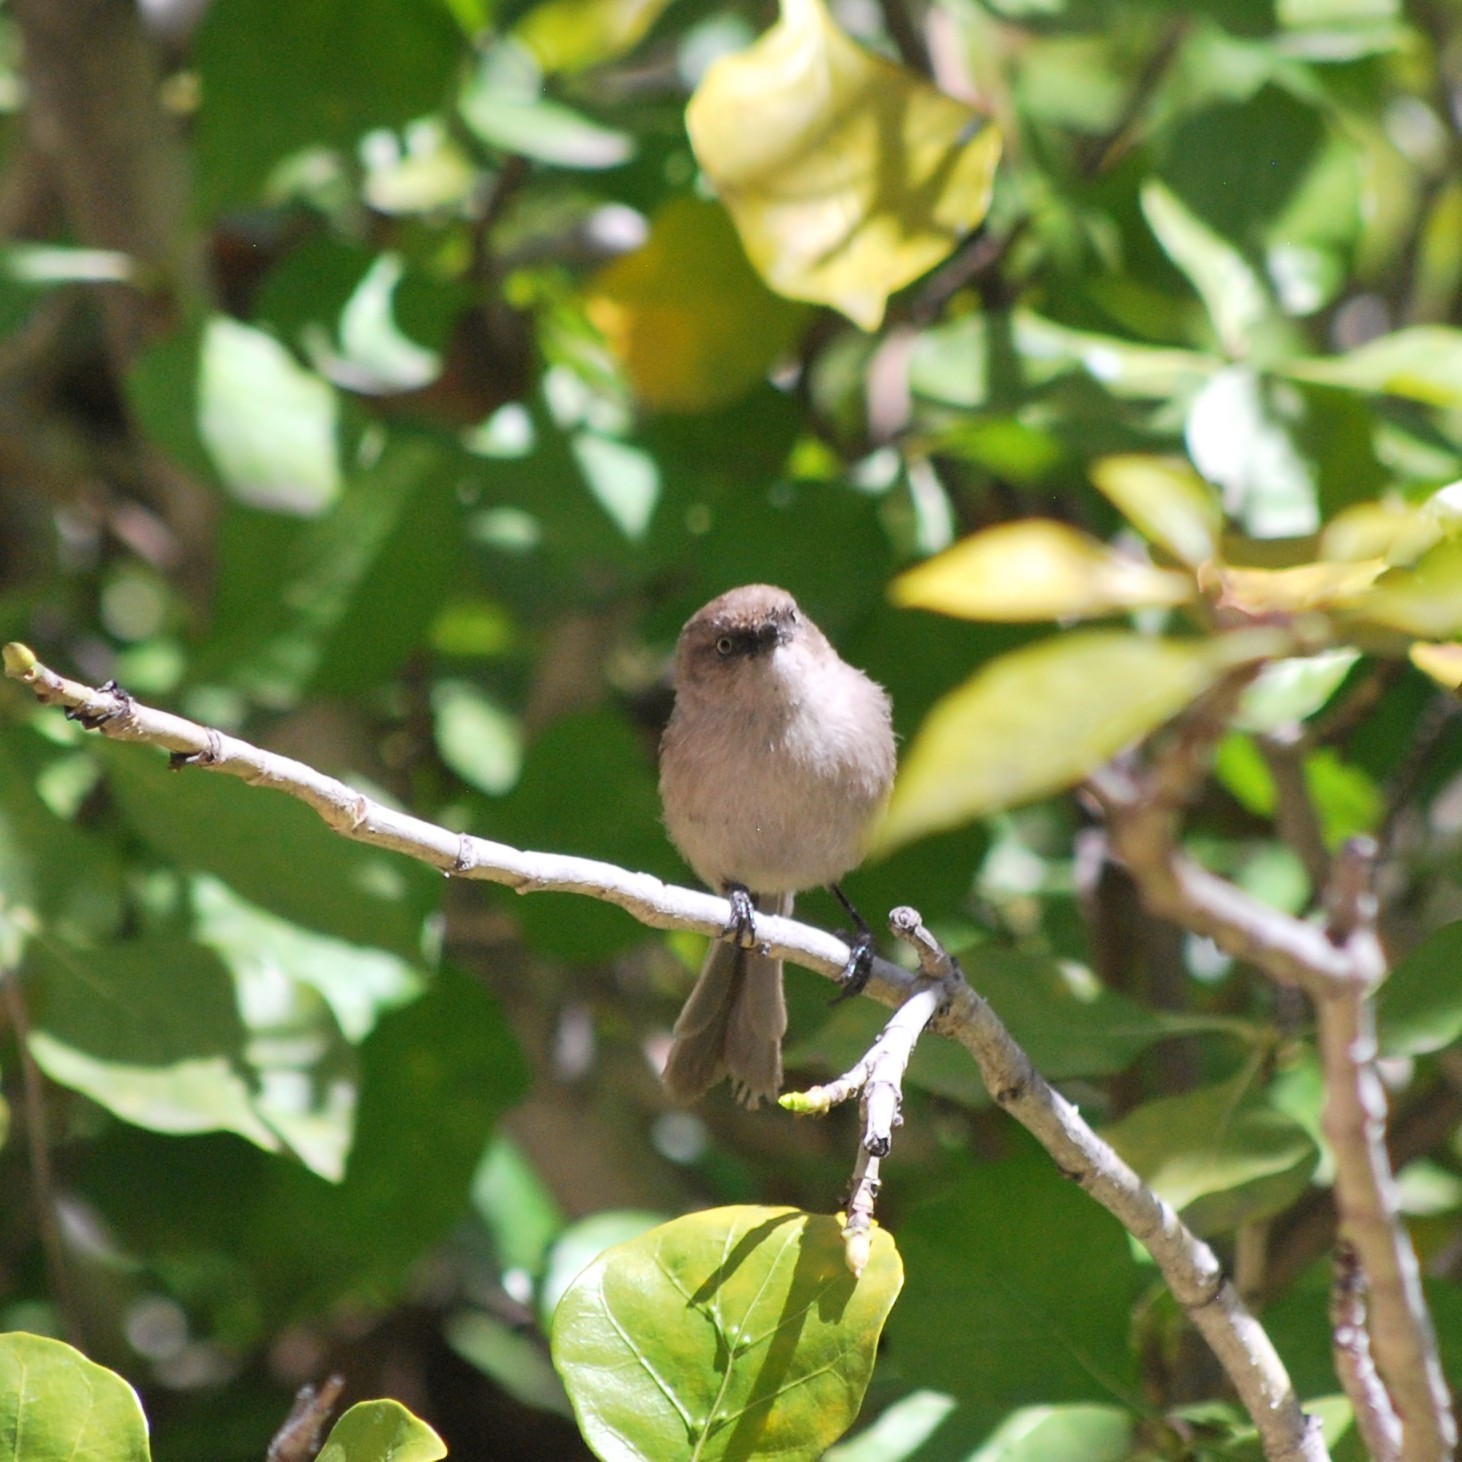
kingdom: Animalia
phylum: Chordata
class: Aves
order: Passeriformes
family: Aegithalidae
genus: Psaltriparus
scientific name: Psaltriparus minimus
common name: American bushtit
